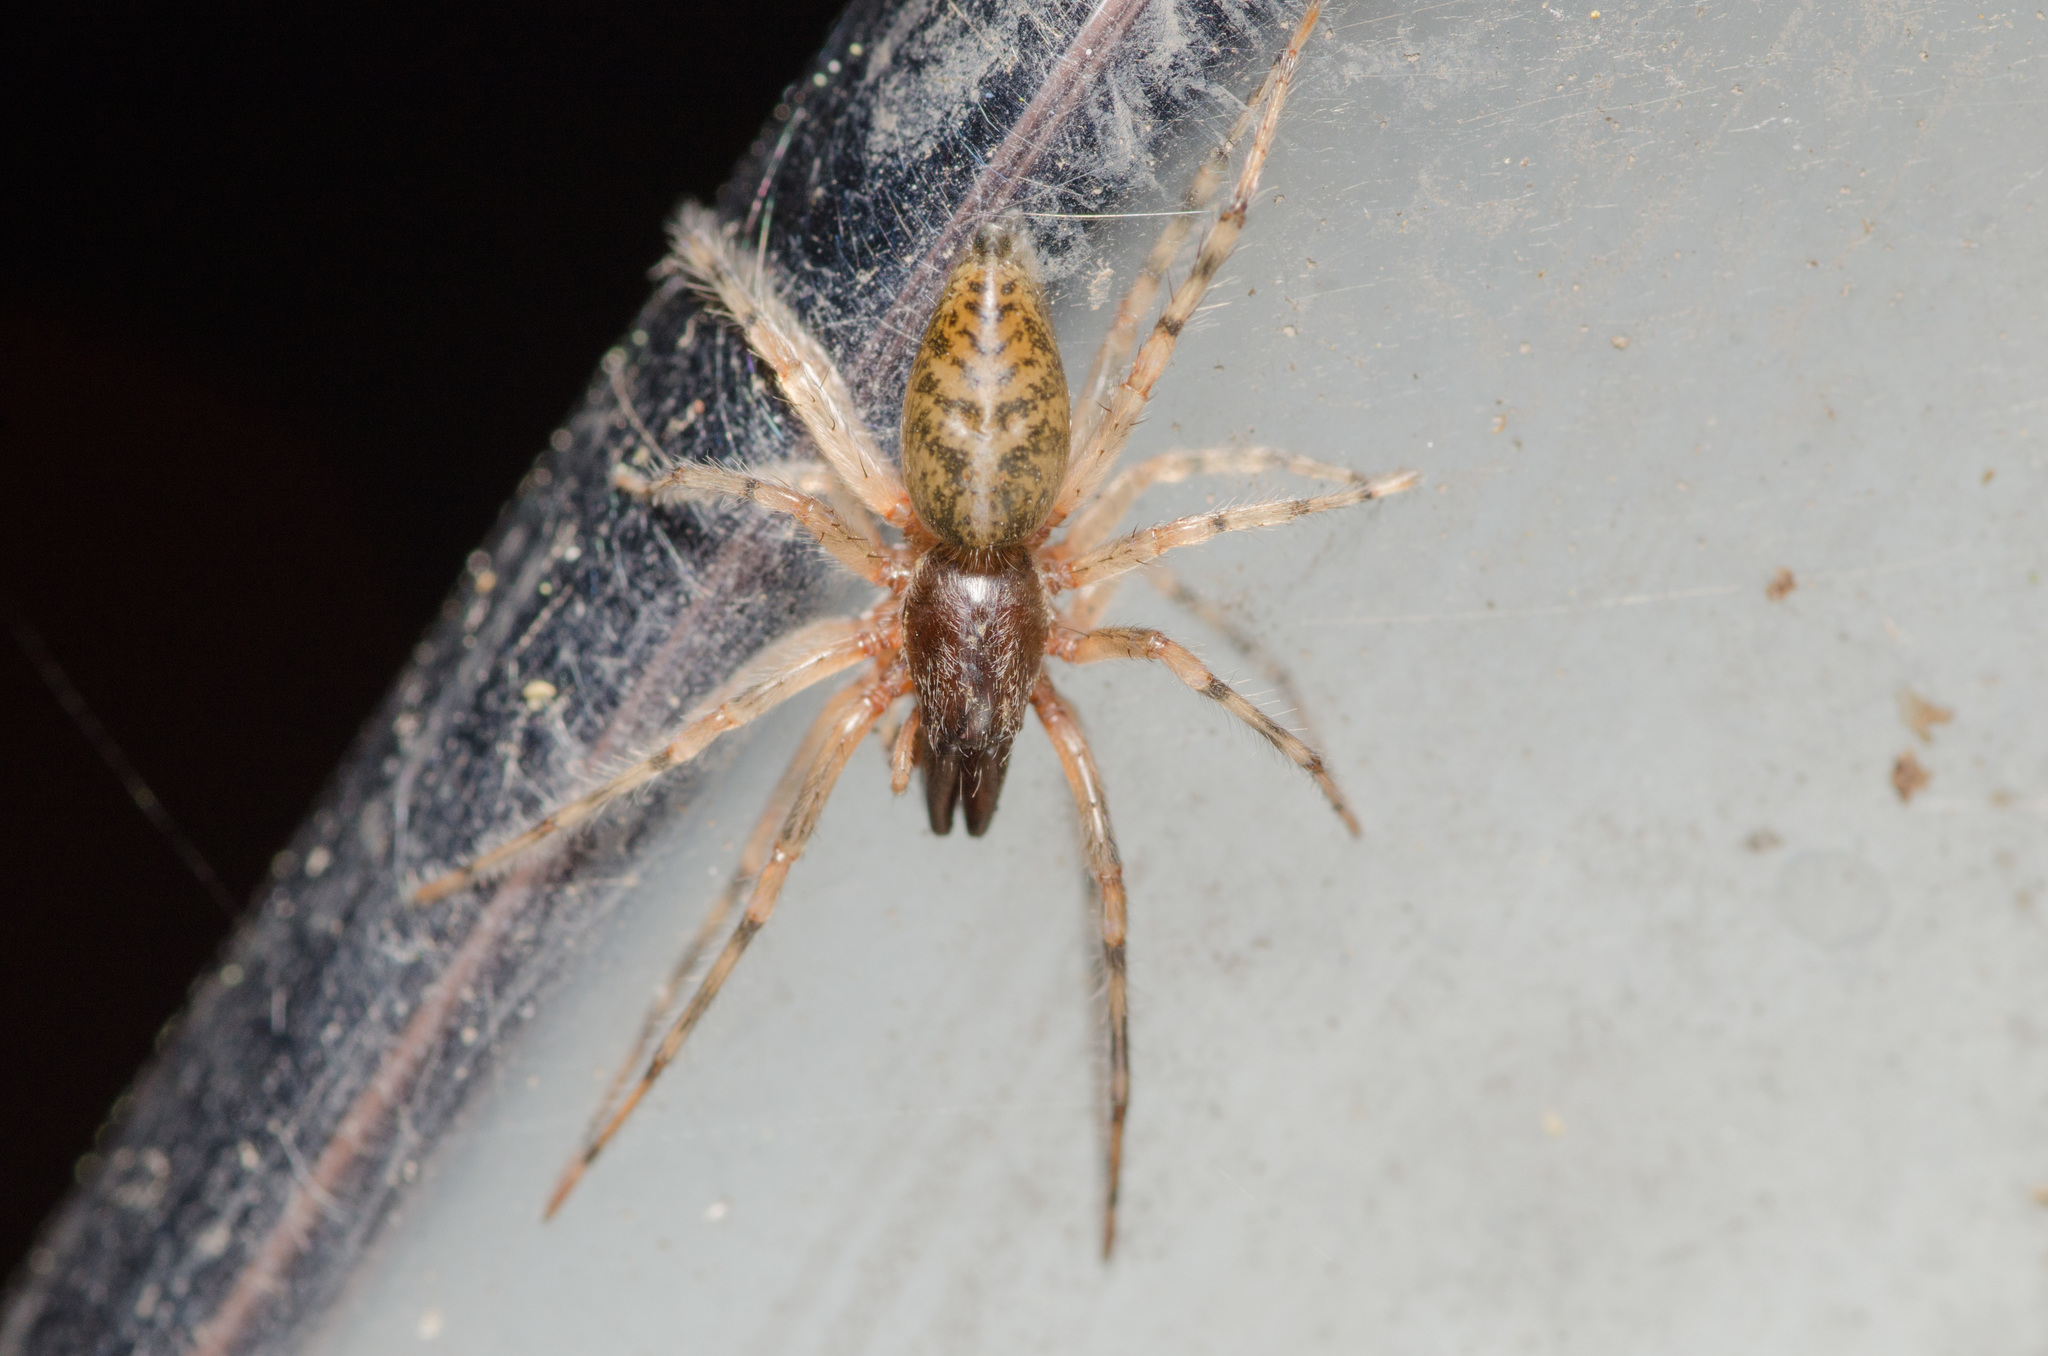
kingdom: Animalia
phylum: Arthropoda
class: Arachnida
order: Araneae
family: Anyphaenidae
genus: Lupettiana
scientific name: Lupettiana mordax
